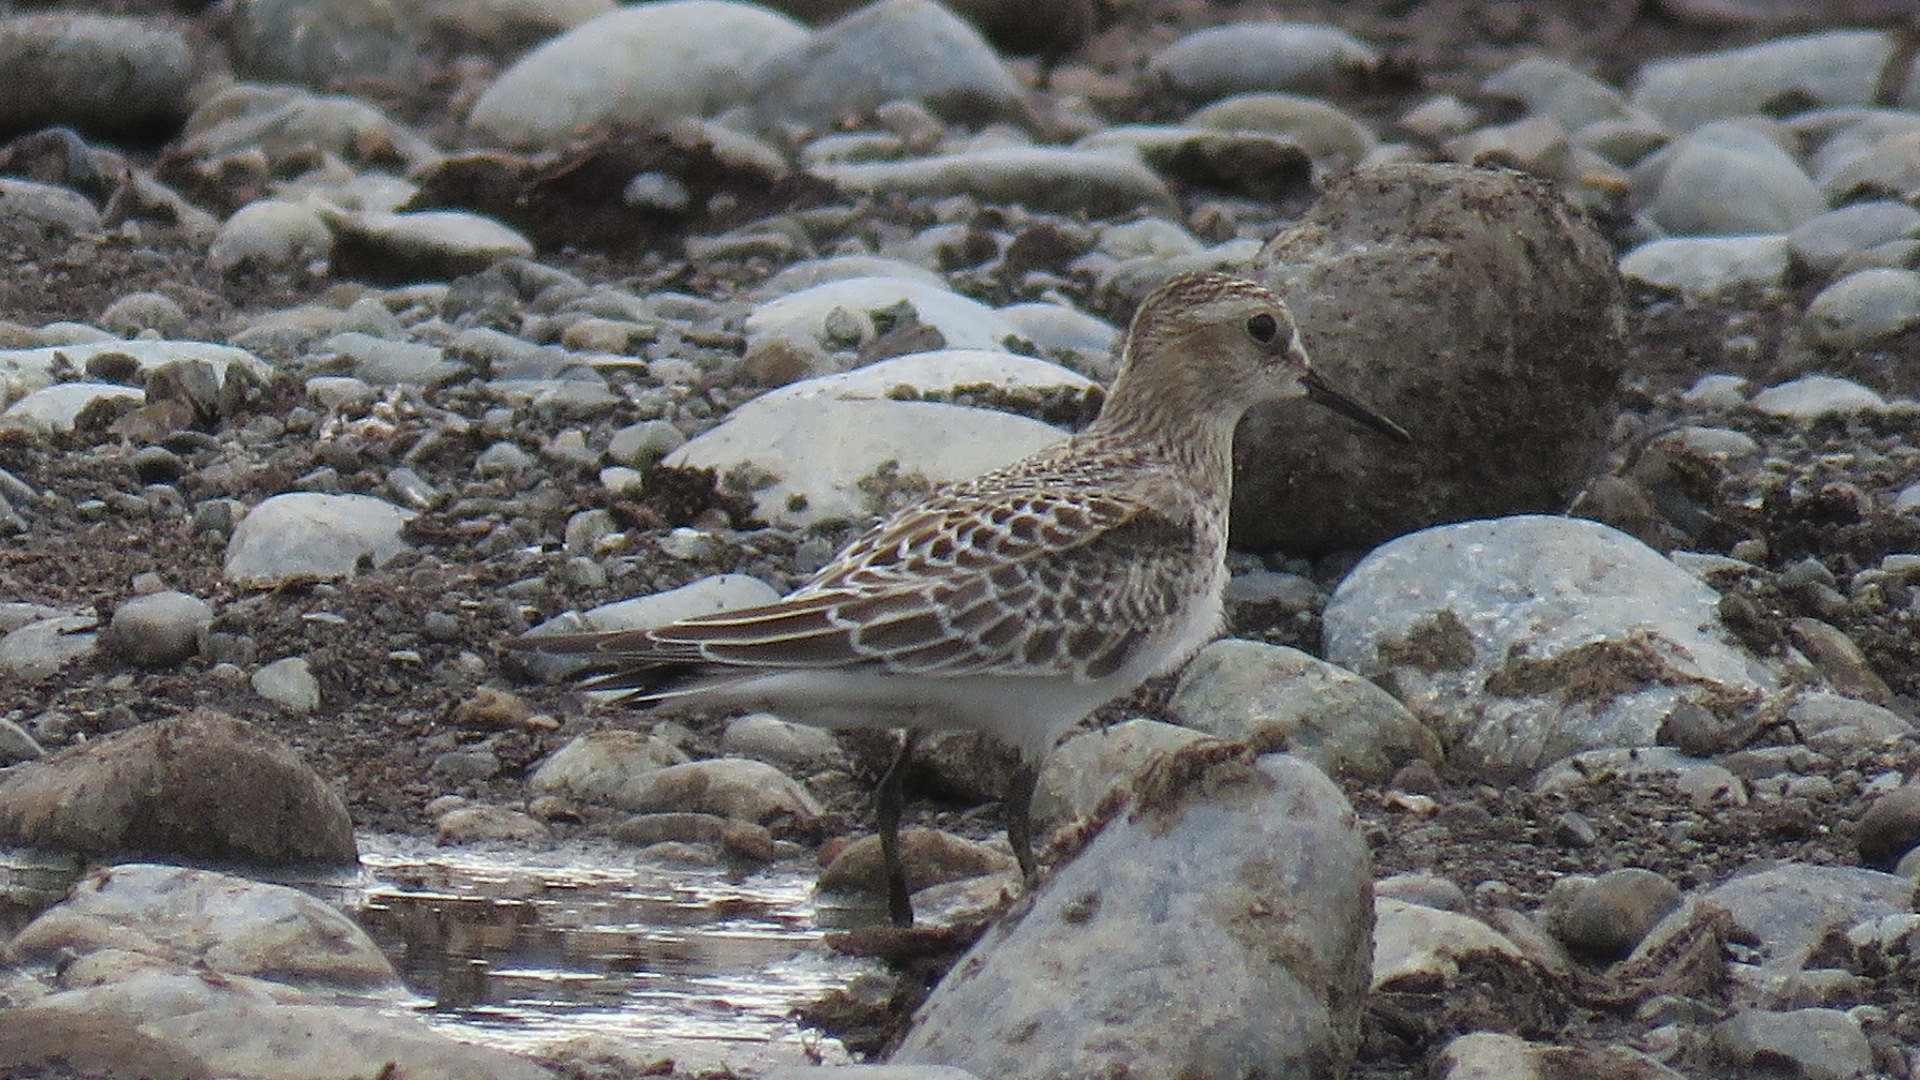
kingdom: Animalia
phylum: Chordata
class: Aves
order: Charadriiformes
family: Scolopacidae
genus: Calidris
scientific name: Calidris bairdii
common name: Baird's sandpiper
